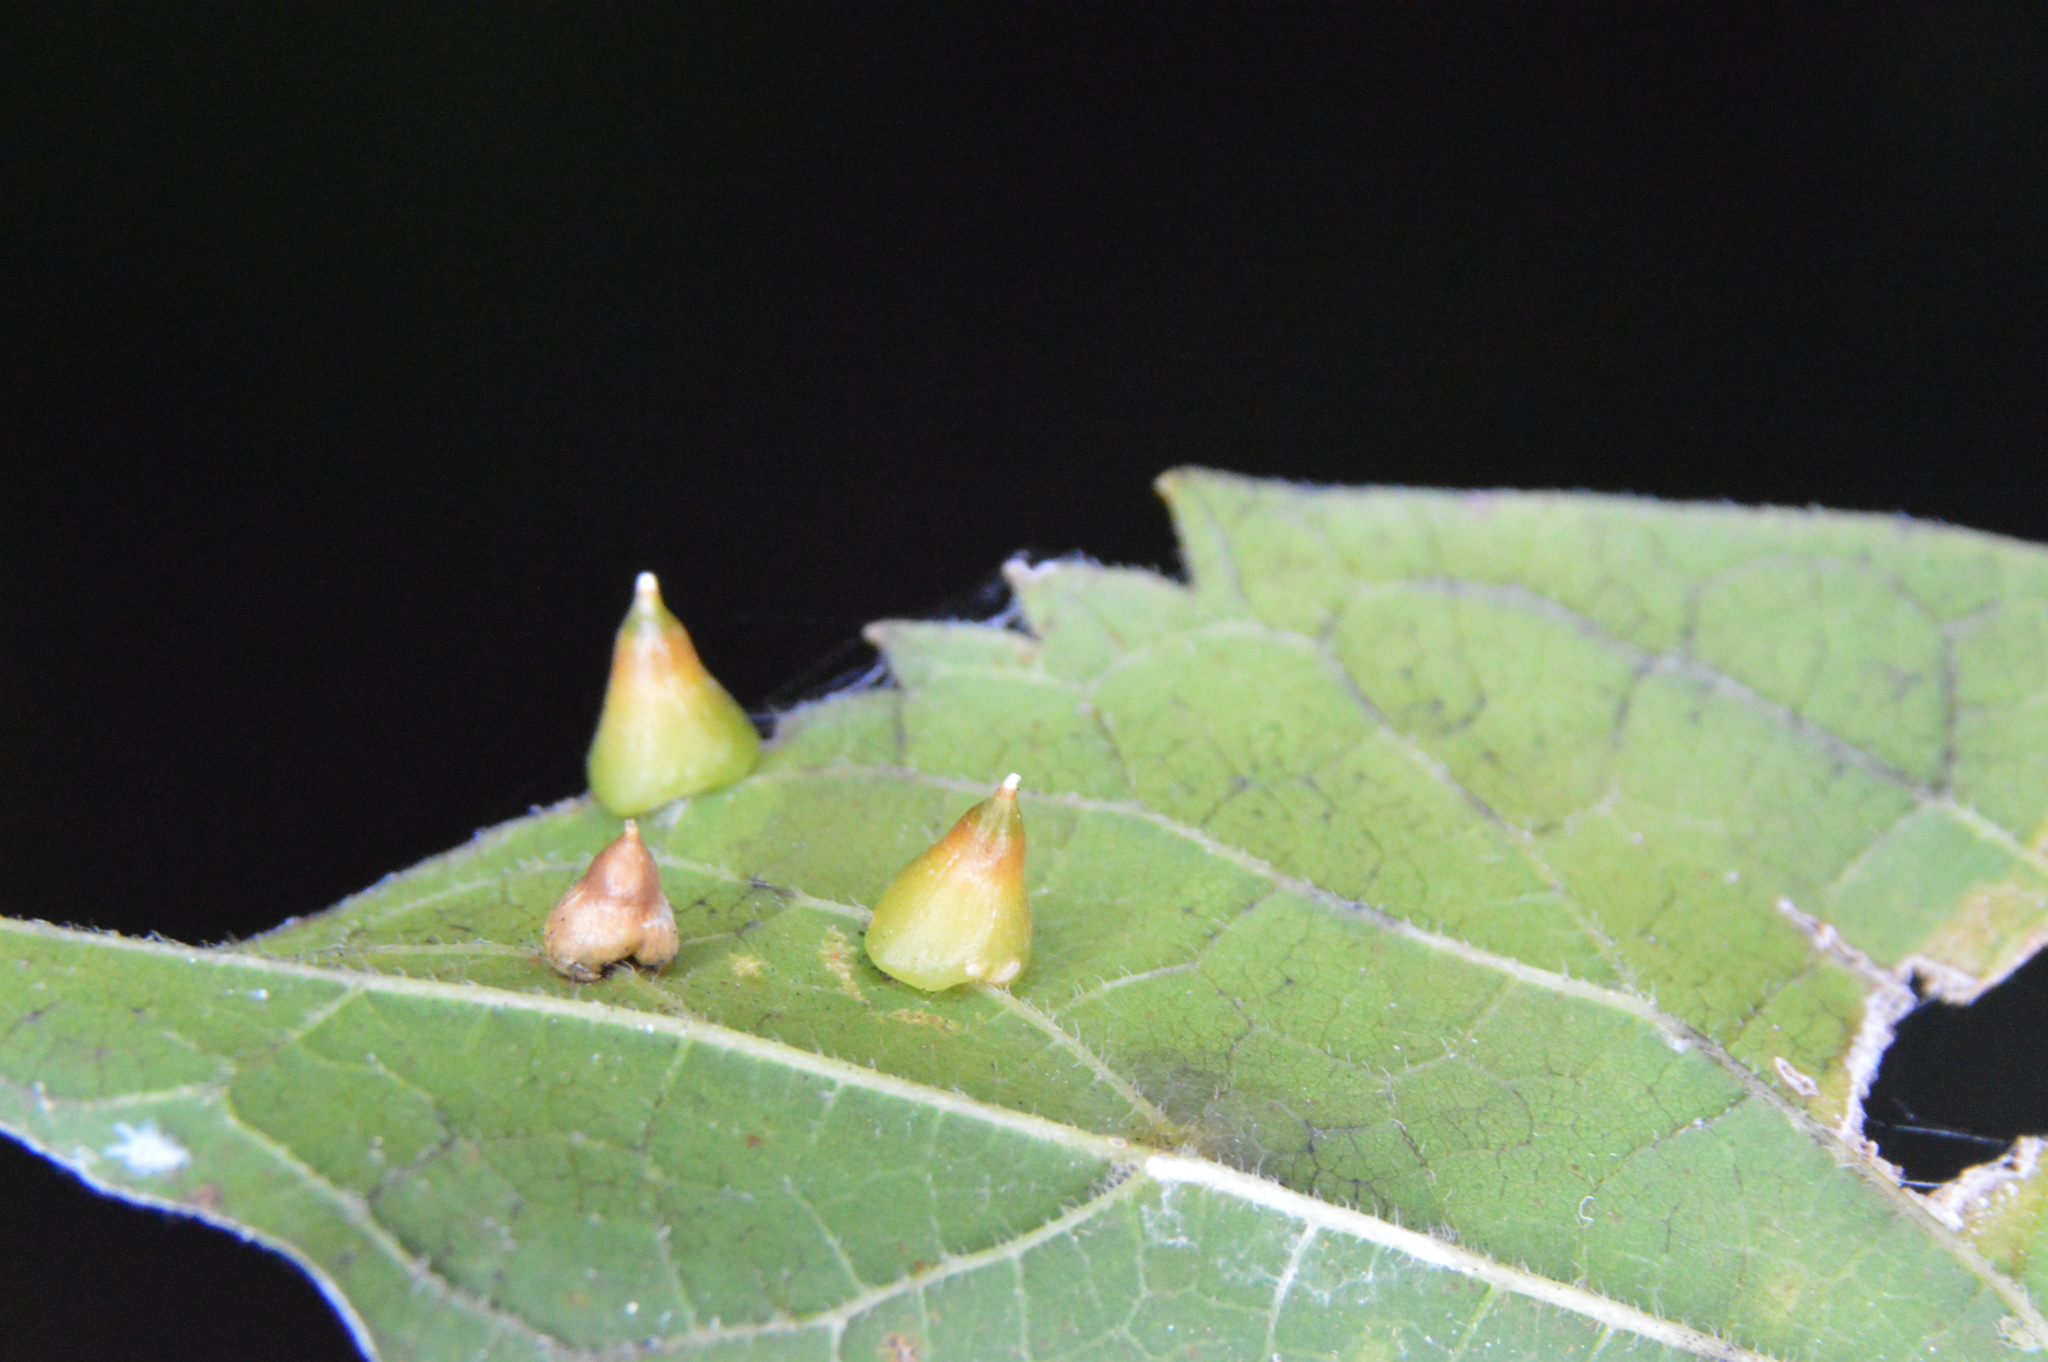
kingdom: Animalia
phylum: Arthropoda
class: Insecta
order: Diptera
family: Cecidomyiidae
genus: Celticecis
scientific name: Celticecis spiniformis
